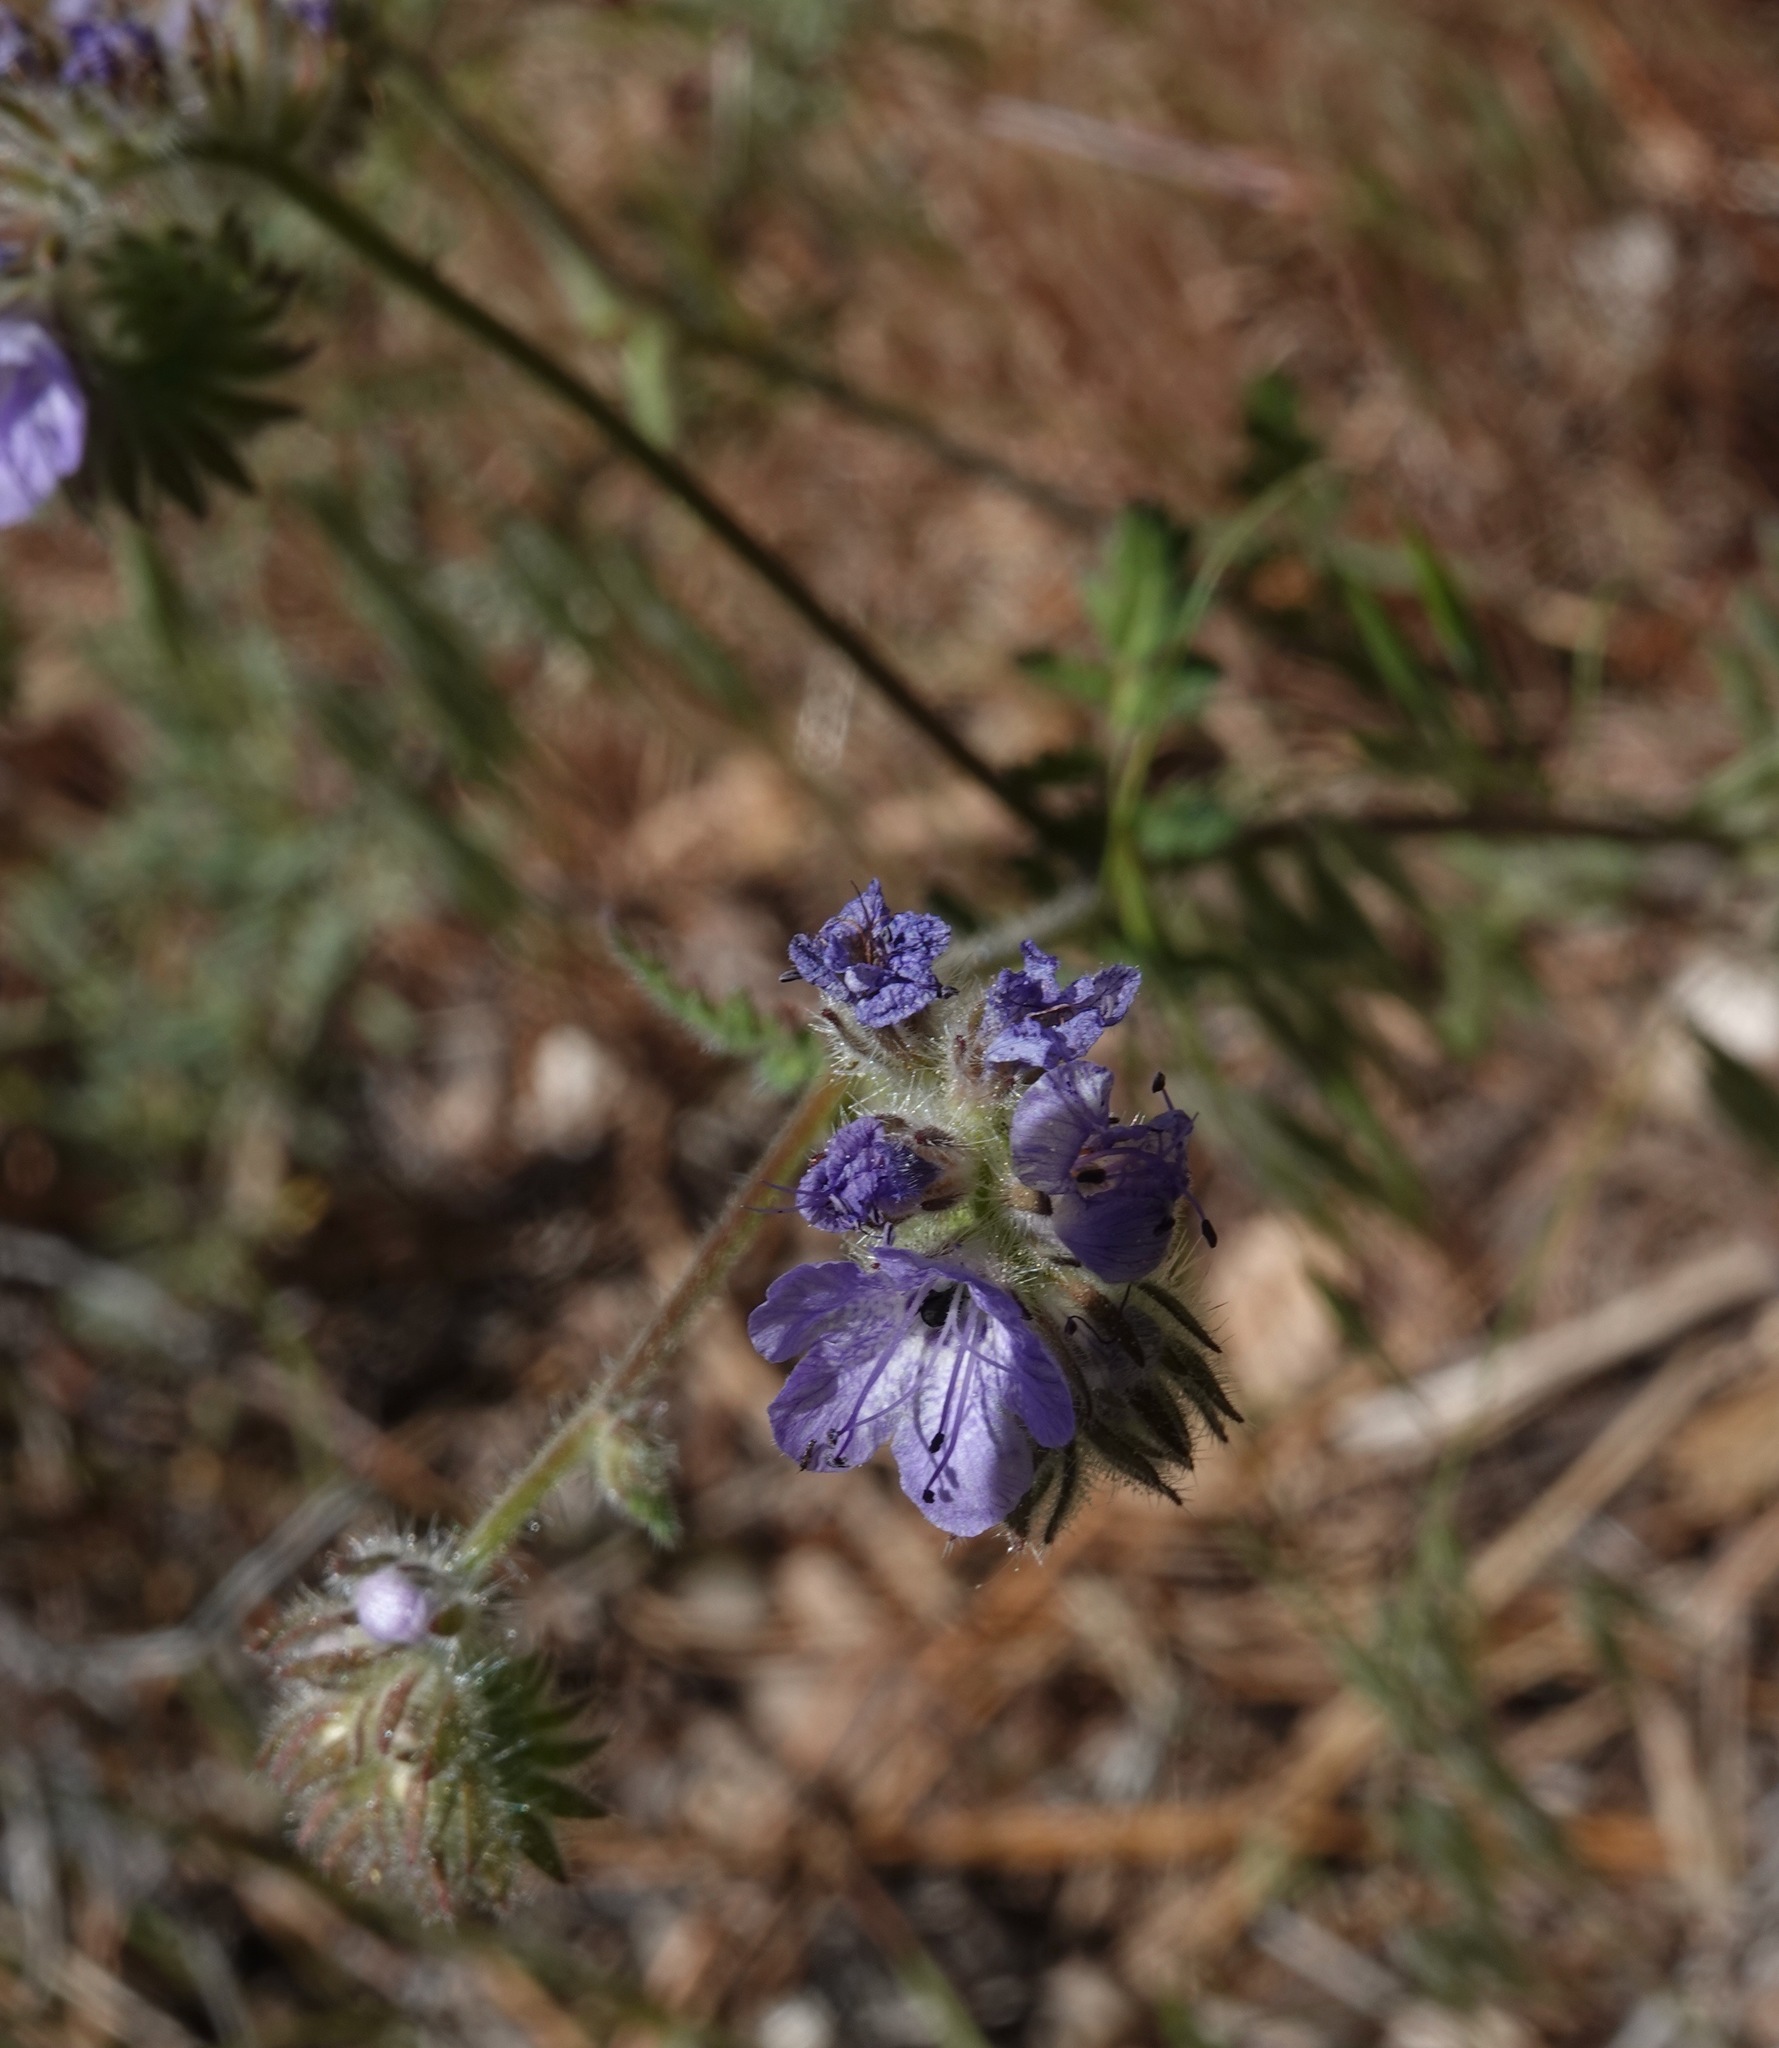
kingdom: Plantae
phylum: Tracheophyta
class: Magnoliopsida
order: Boraginales
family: Hydrophyllaceae
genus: Phacelia
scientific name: Phacelia distans
